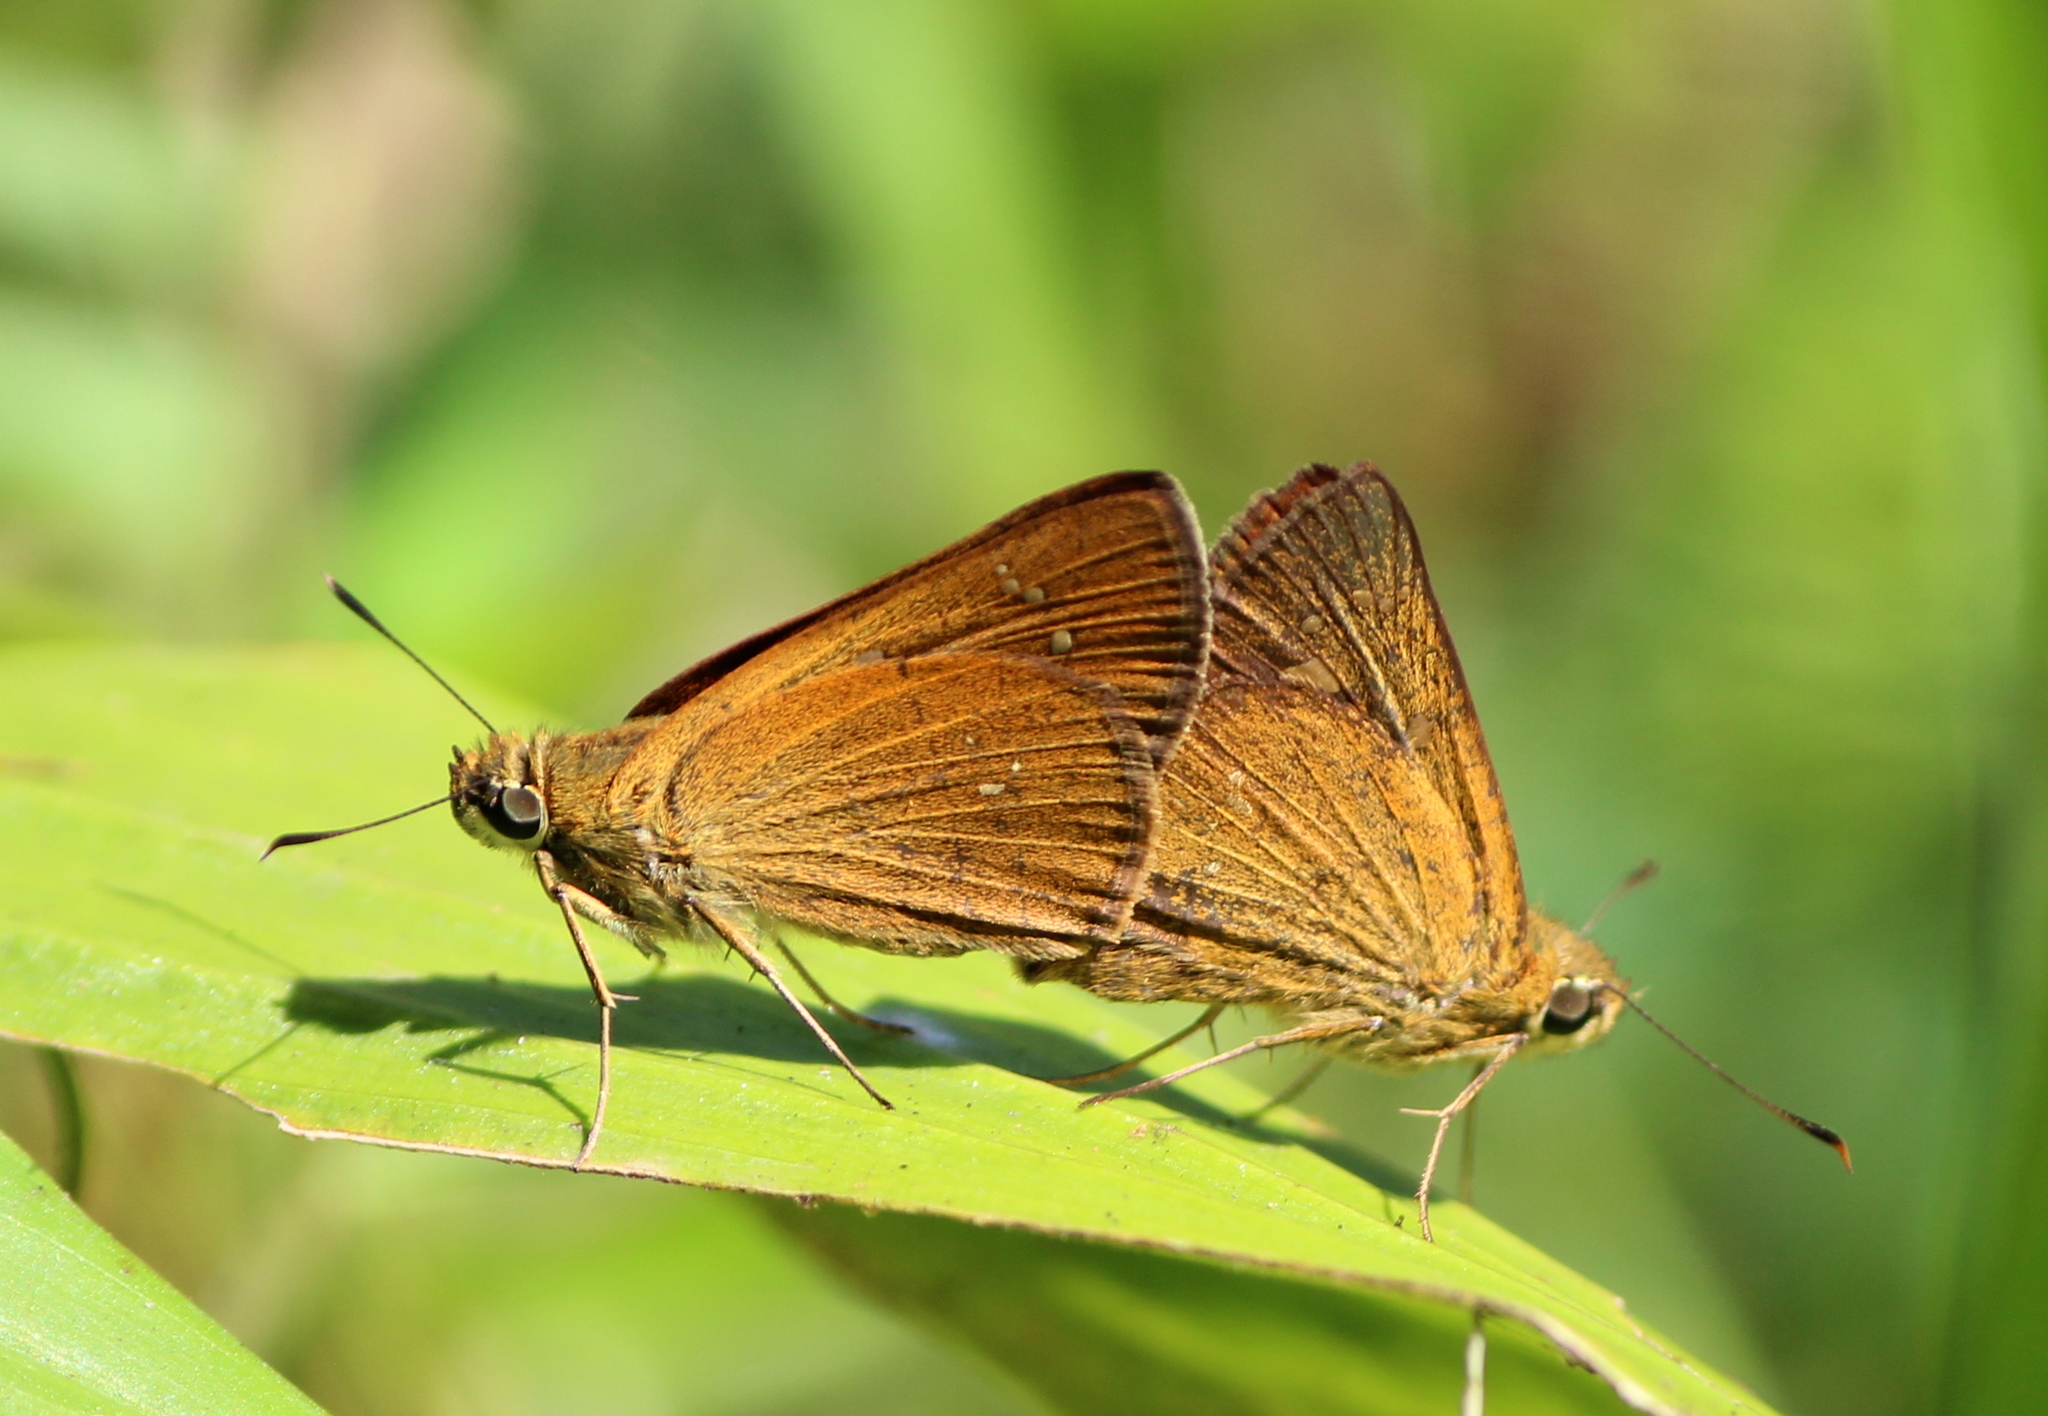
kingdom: Animalia
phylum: Arthropoda
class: Insecta
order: Lepidoptera
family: Hesperiidae
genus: Polytremis
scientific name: Polytremis lubricans
